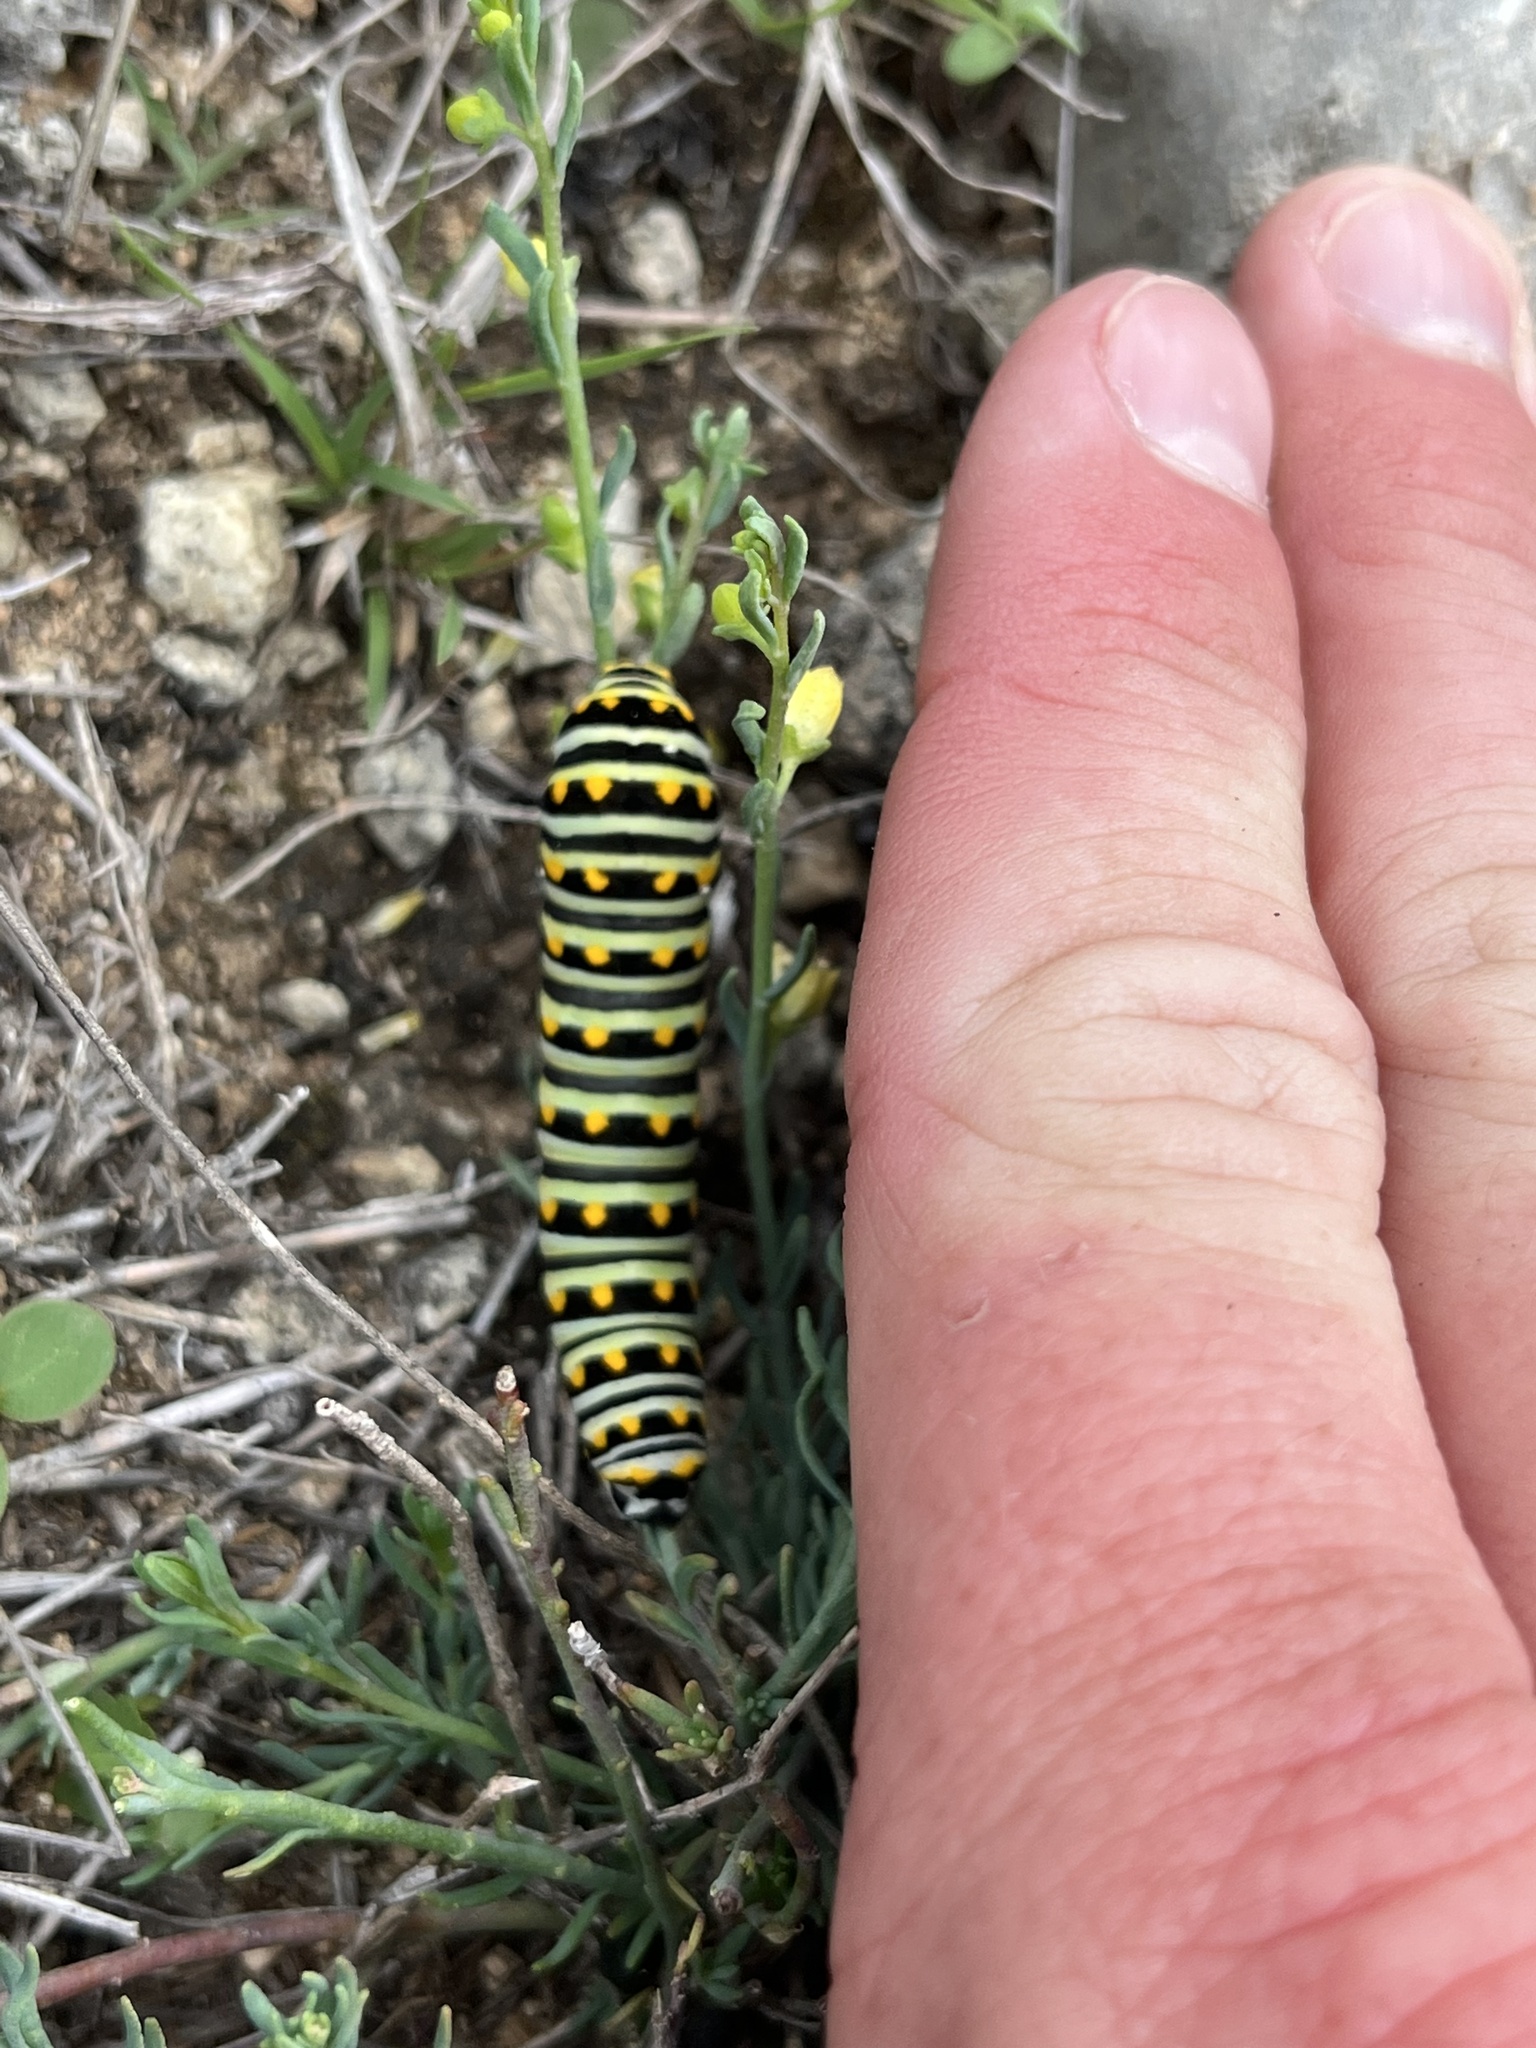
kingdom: Animalia
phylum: Arthropoda
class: Insecta
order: Lepidoptera
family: Papilionidae
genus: Papilio
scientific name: Papilio polyxenes
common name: Black swallowtail
